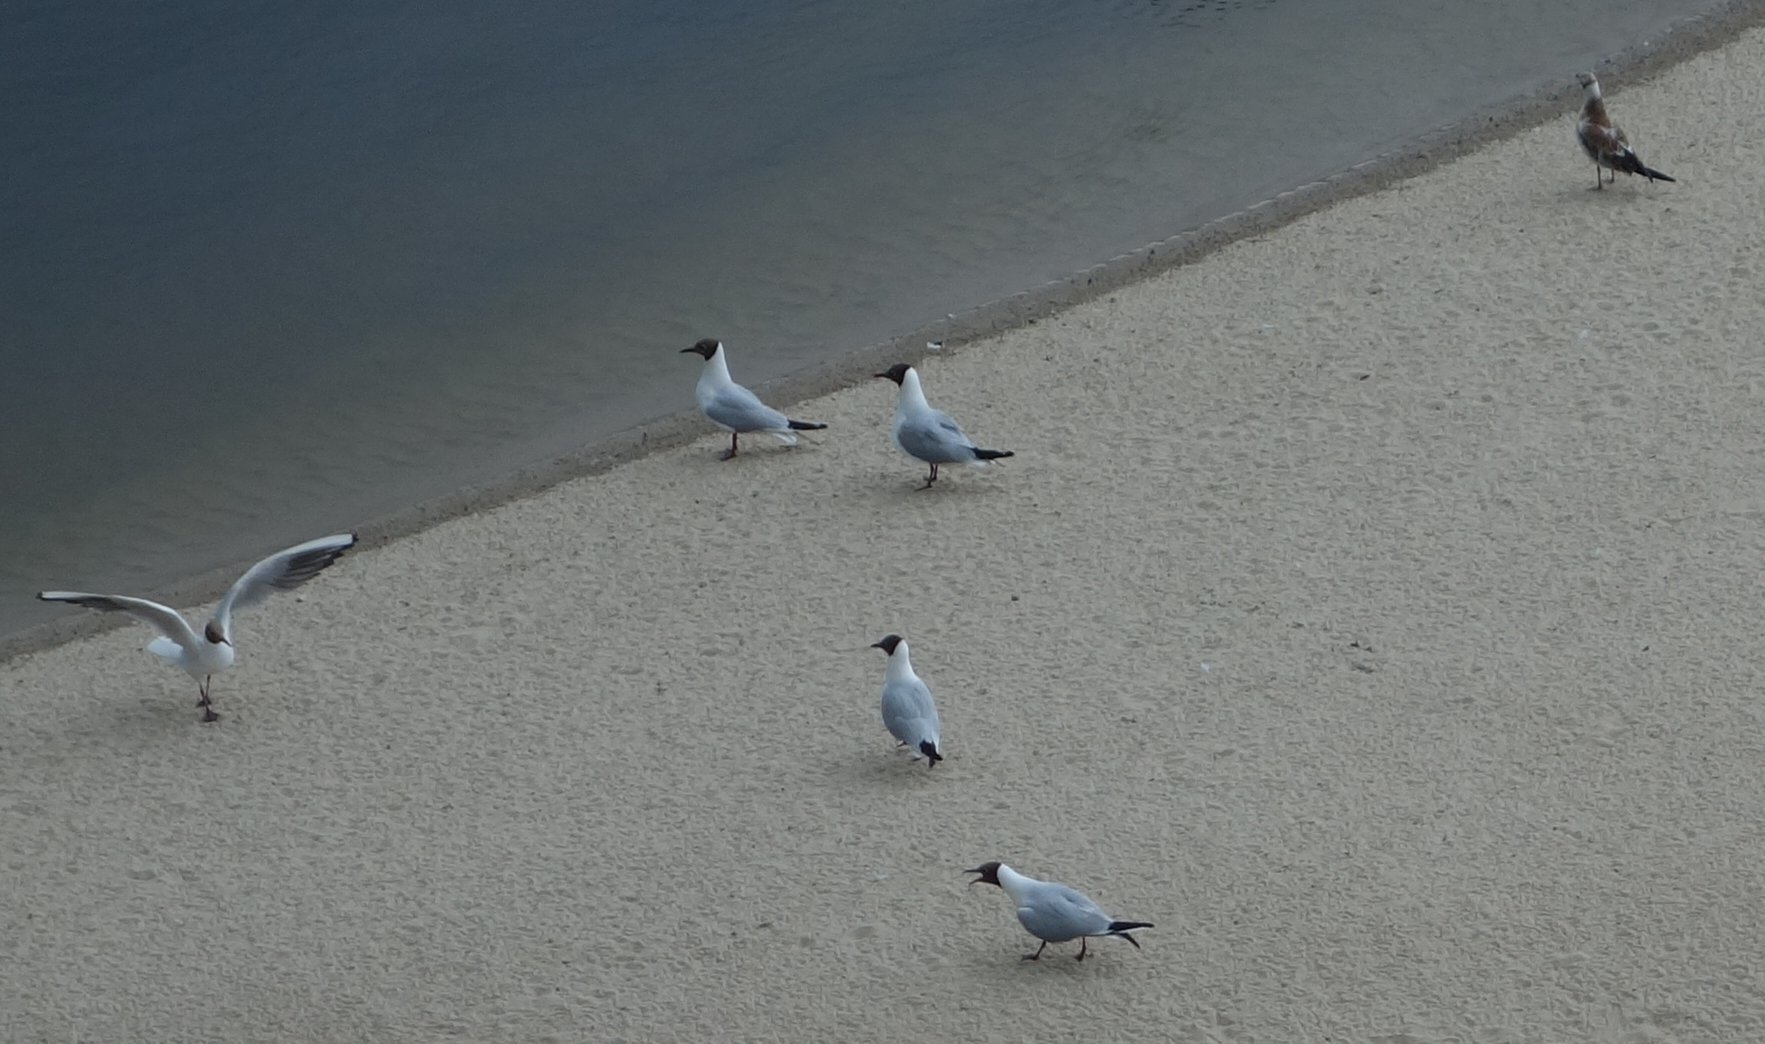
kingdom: Animalia
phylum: Chordata
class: Aves
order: Charadriiformes
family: Laridae
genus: Chroicocephalus
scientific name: Chroicocephalus ridibundus
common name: Black-headed gull
